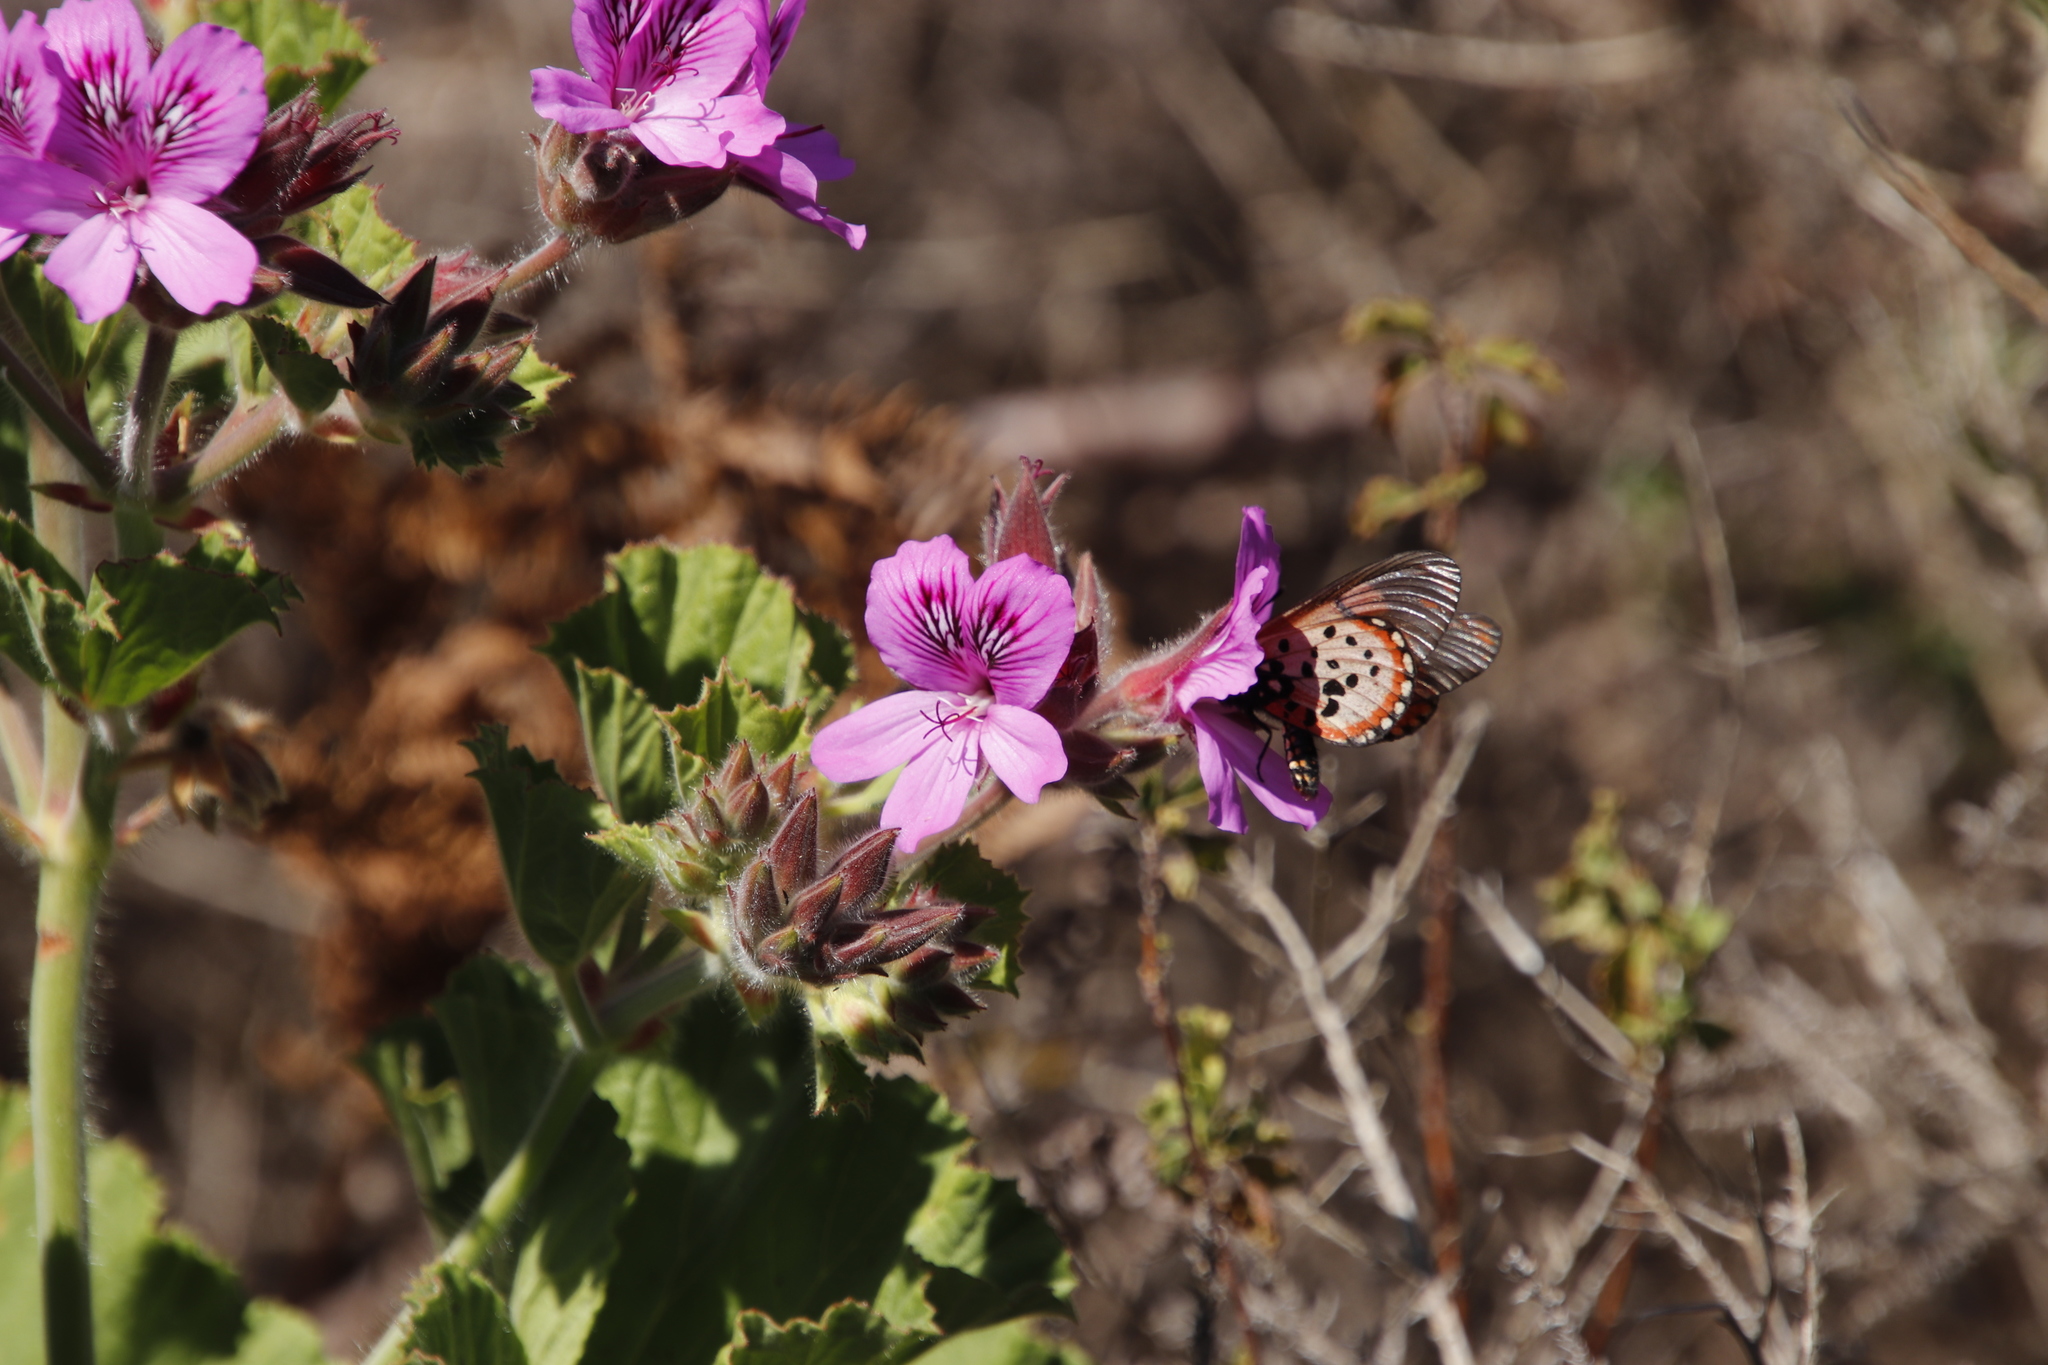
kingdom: Plantae
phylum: Tracheophyta
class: Magnoliopsida
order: Geraniales
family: Geraniaceae
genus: Pelargonium
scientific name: Pelargonium cucullatum
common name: Tree pelargonium
